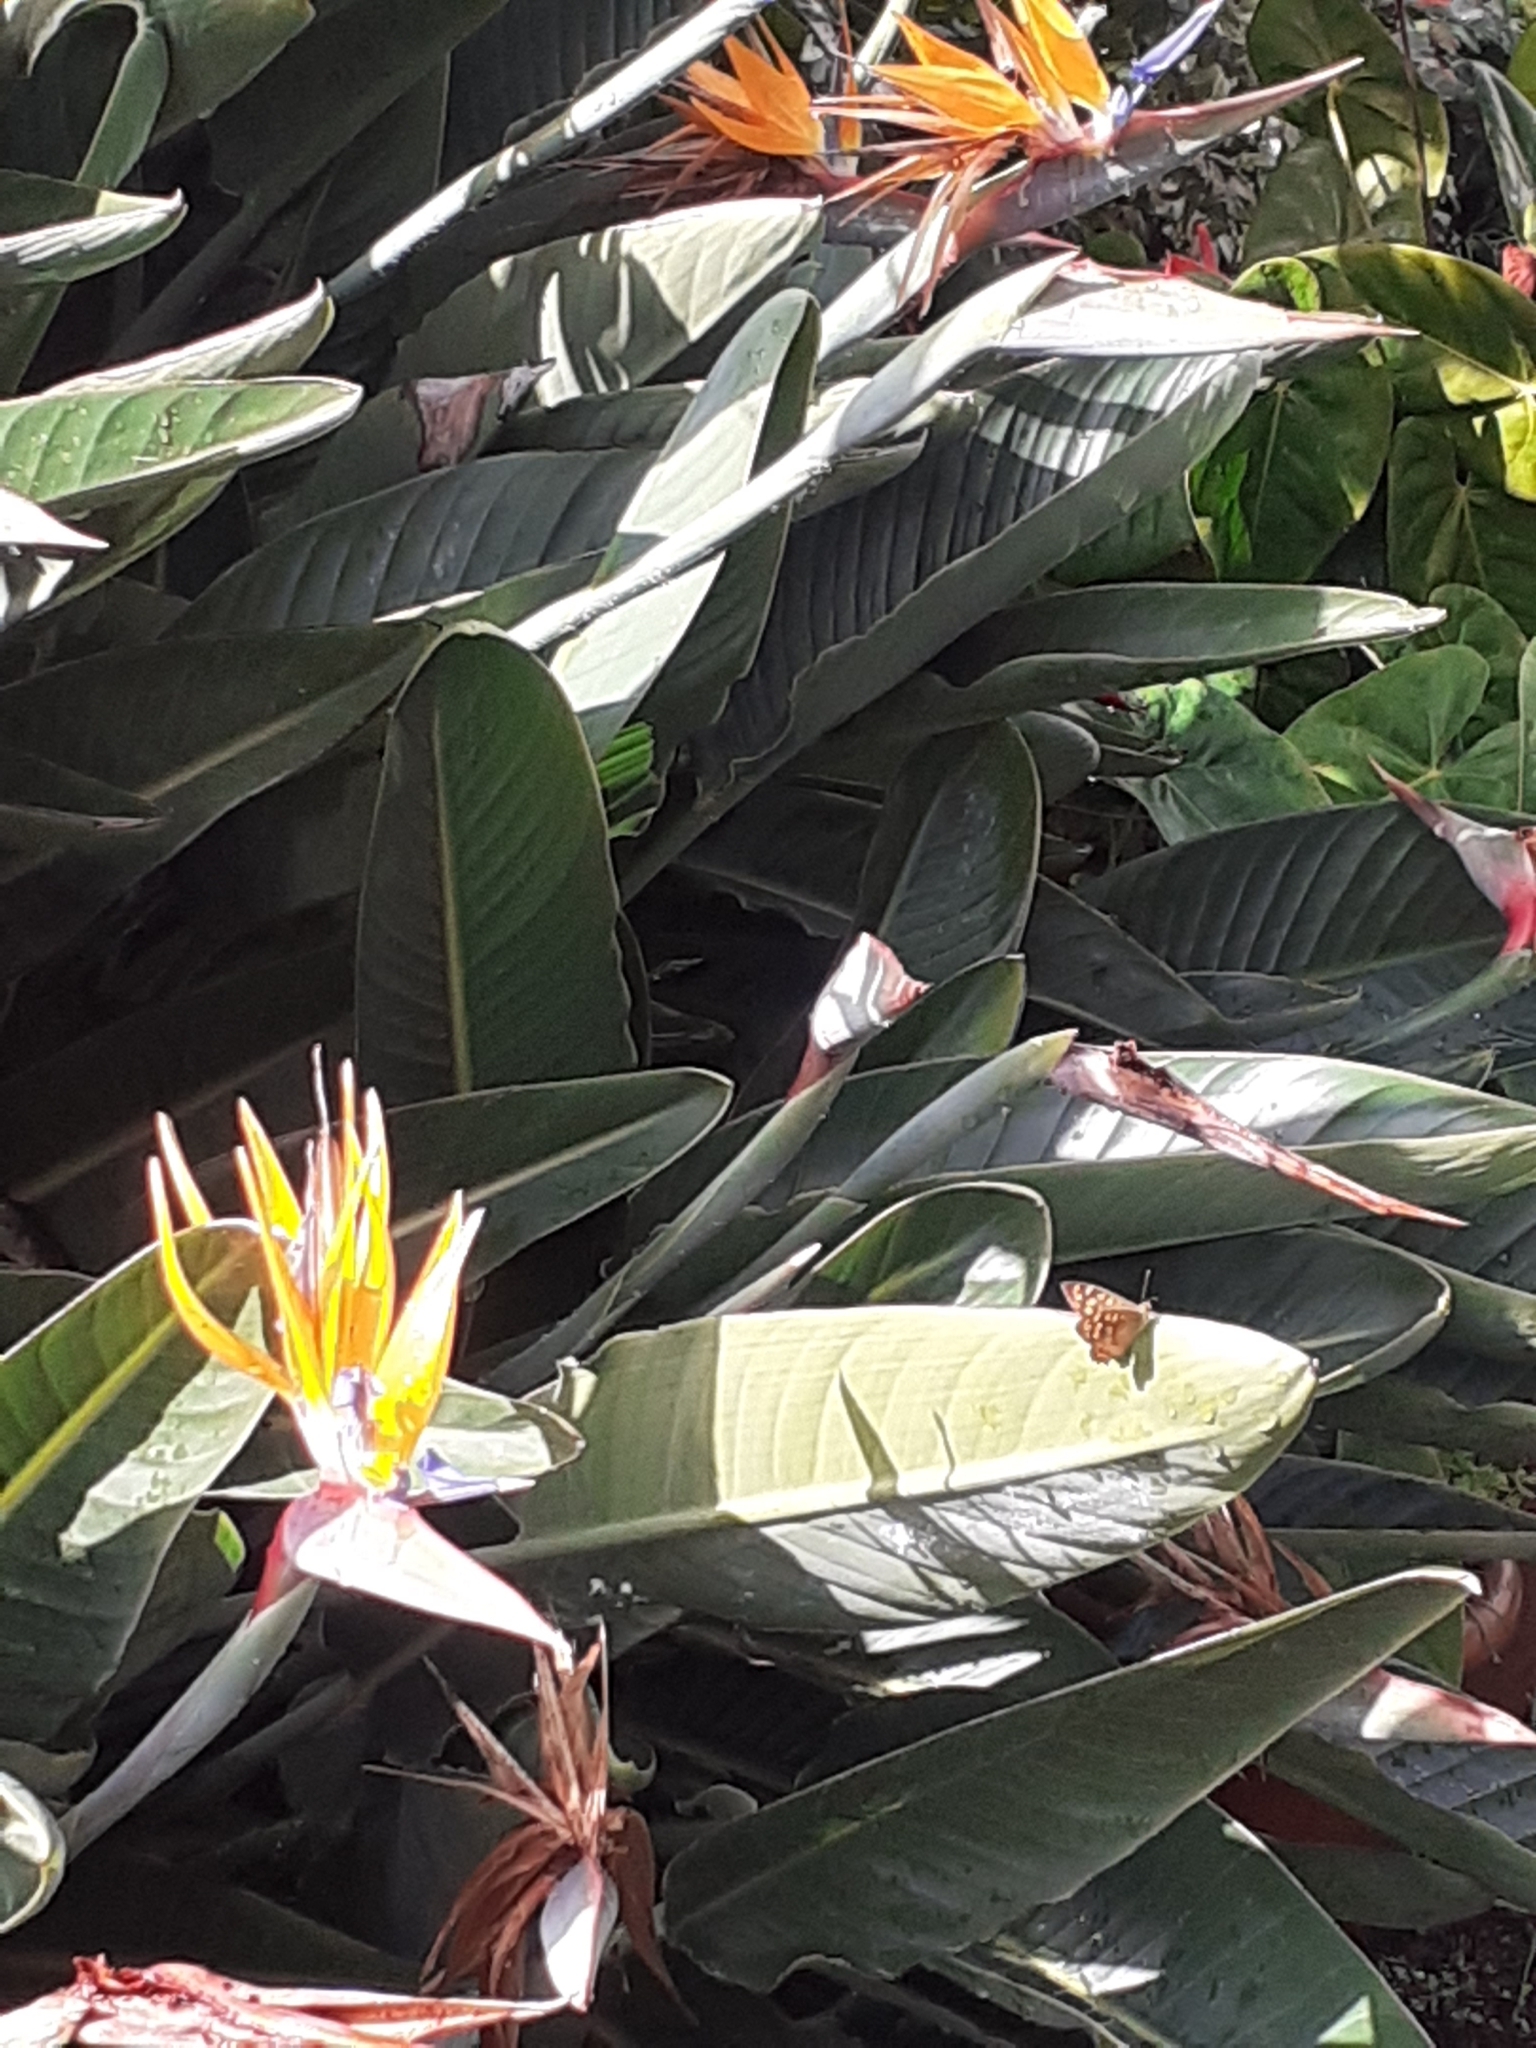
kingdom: Animalia
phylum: Arthropoda
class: Insecta
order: Lepidoptera
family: Nymphalidae
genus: Pararge
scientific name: Pararge aegeria
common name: Speckled wood
